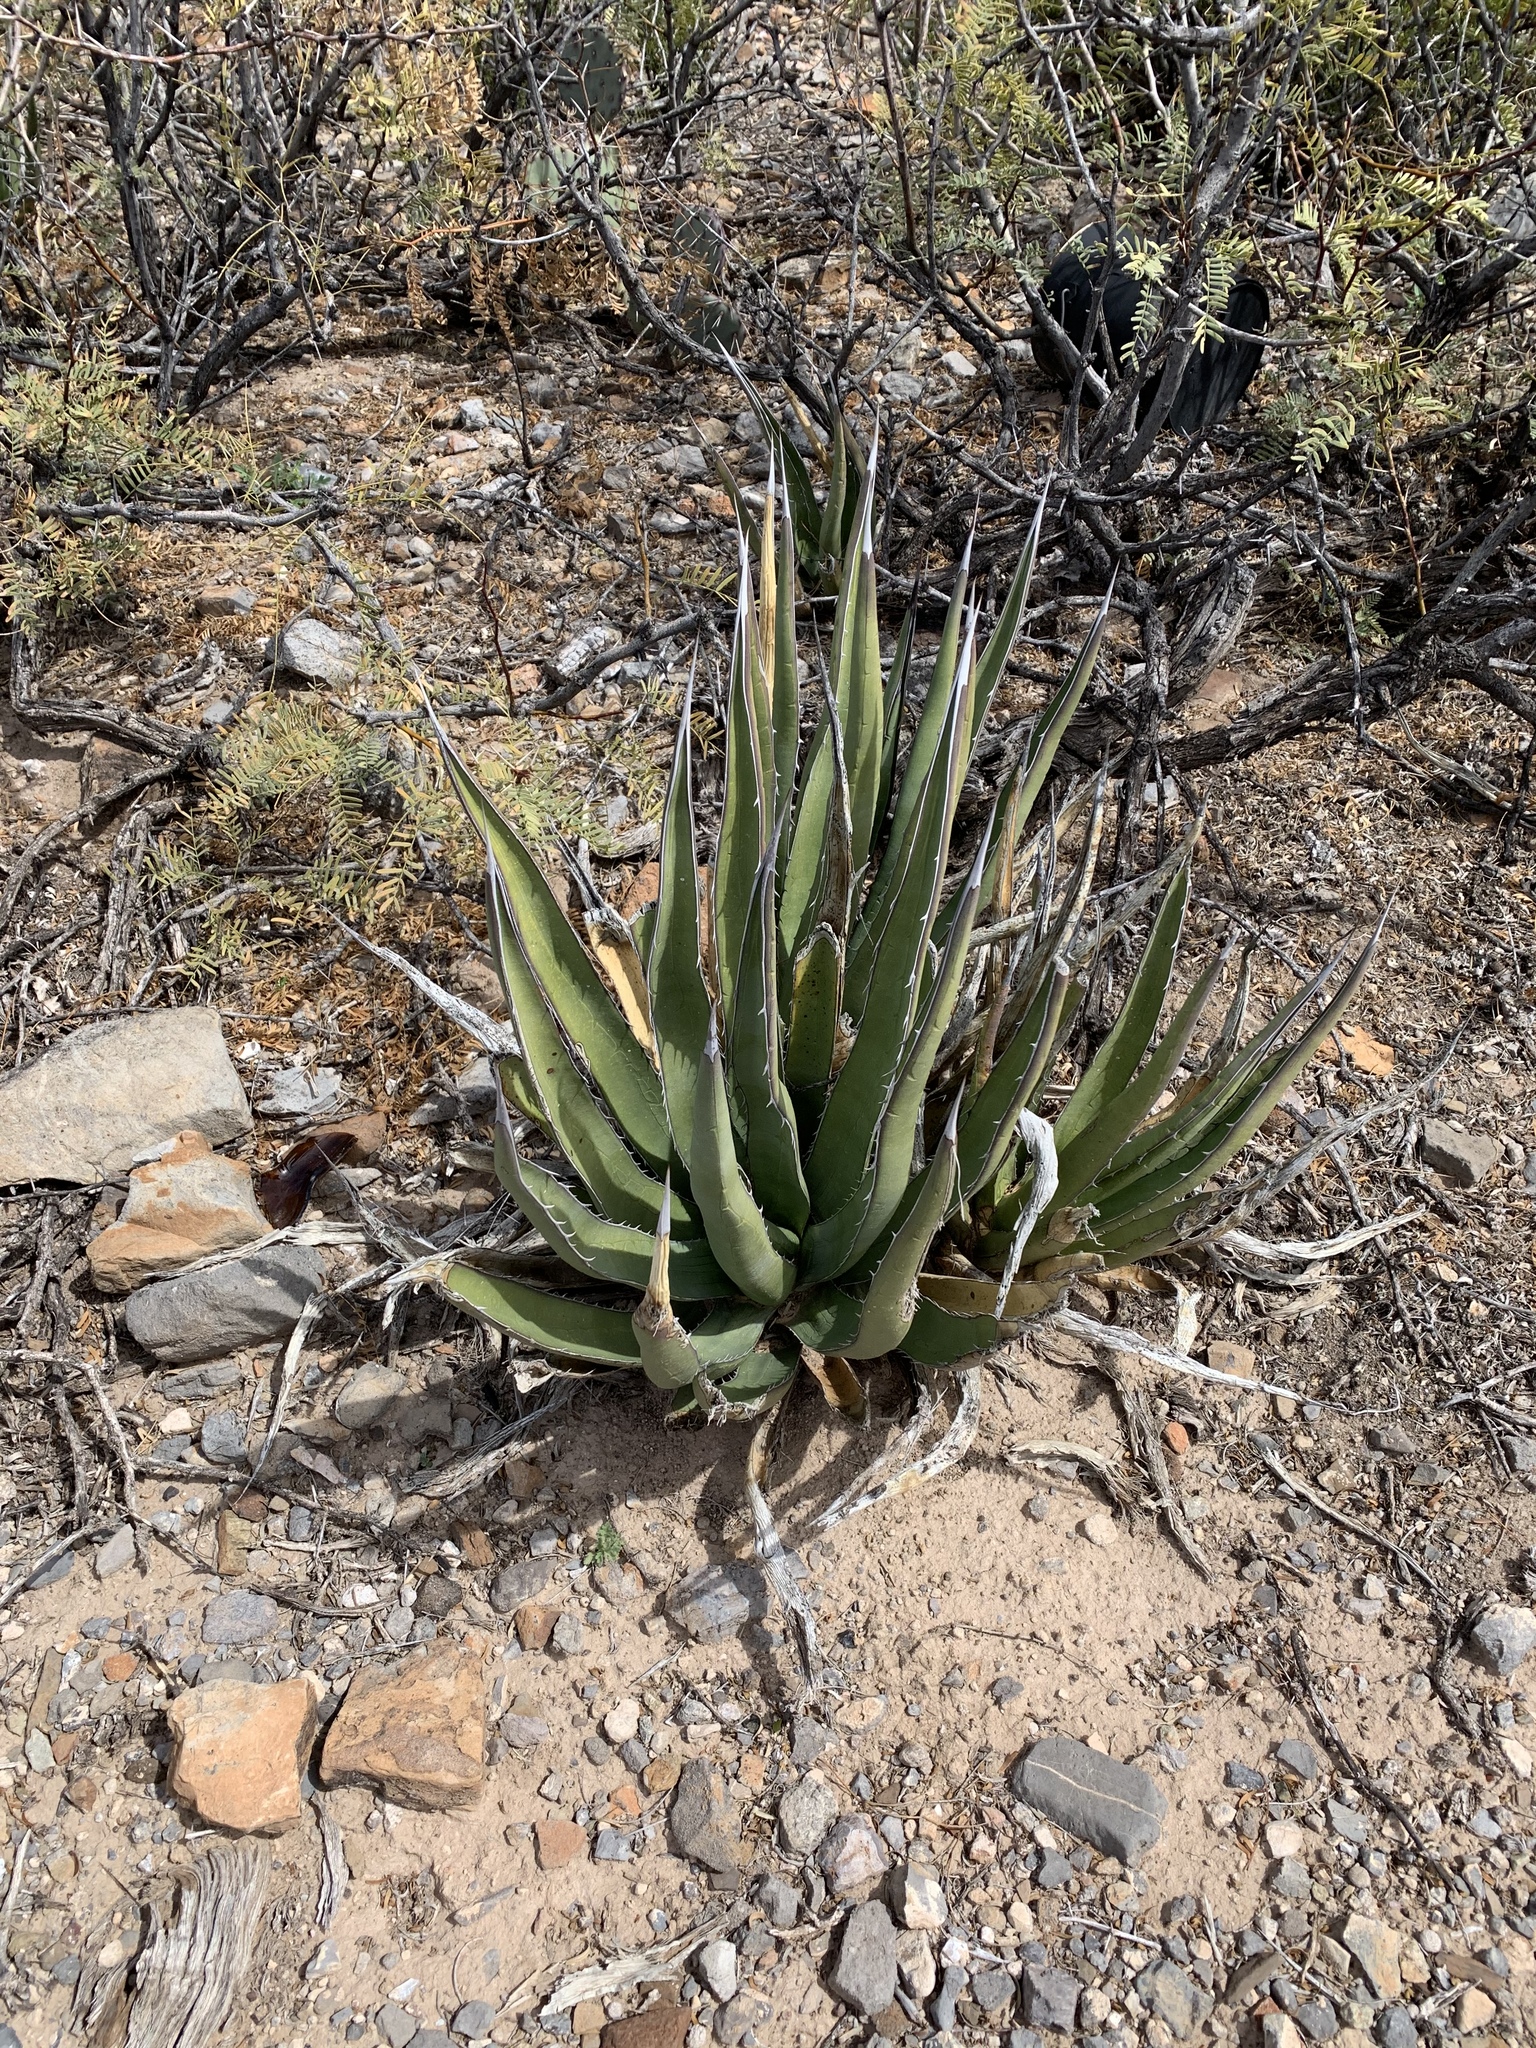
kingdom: Plantae
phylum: Tracheophyta
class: Liliopsida
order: Asparagales
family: Asparagaceae
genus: Agave
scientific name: Agave lechuguilla
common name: Lecheguilla agave
